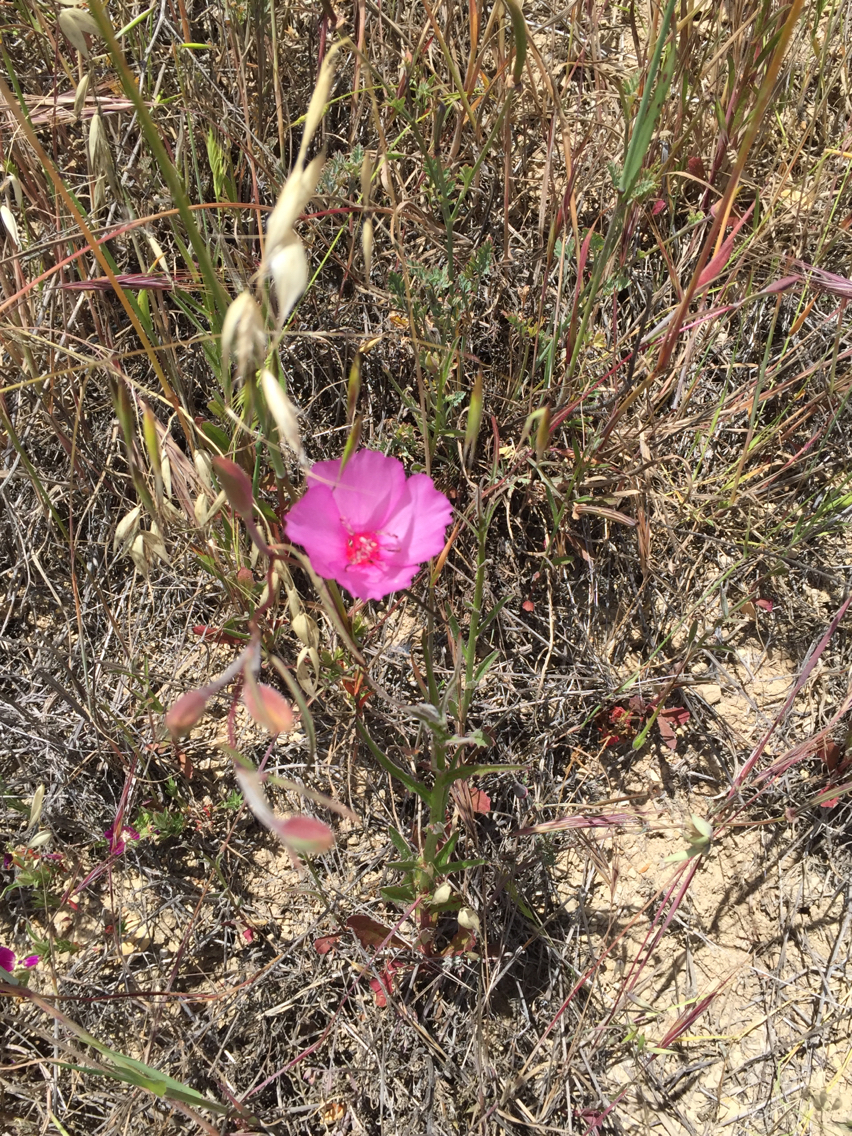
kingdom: Plantae
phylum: Tracheophyta
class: Magnoliopsida
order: Myrtales
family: Onagraceae
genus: Clarkia
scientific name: Clarkia rubicunda
